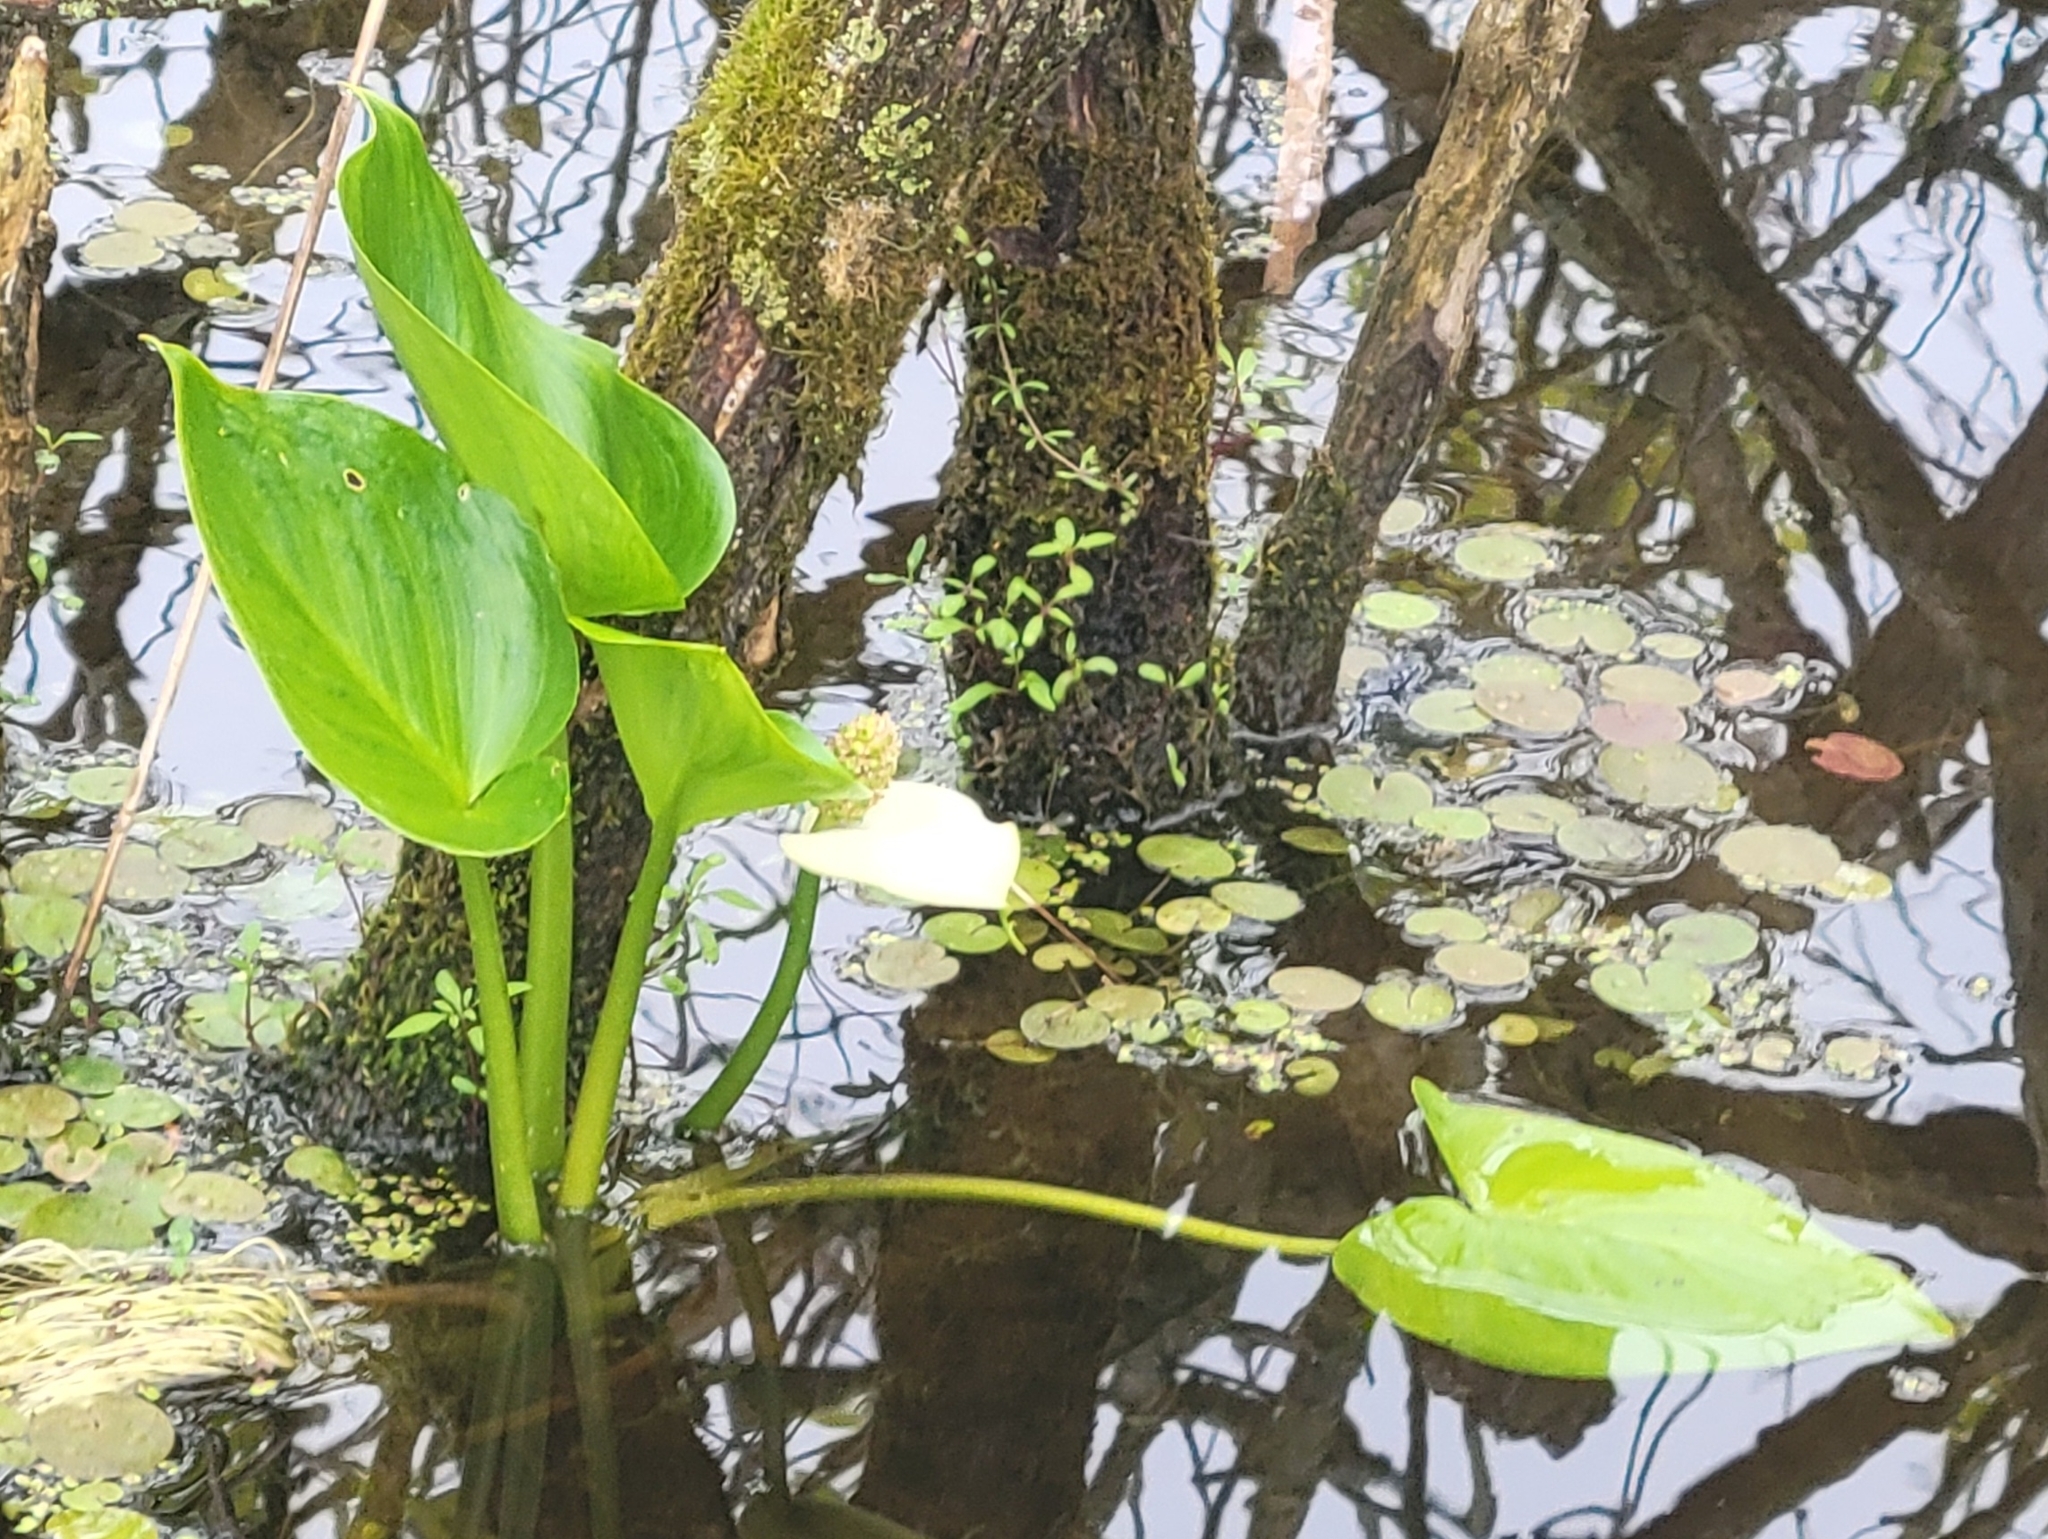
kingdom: Plantae
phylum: Tracheophyta
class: Liliopsida
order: Alismatales
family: Araceae
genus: Calla
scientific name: Calla palustris
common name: Bog arum
